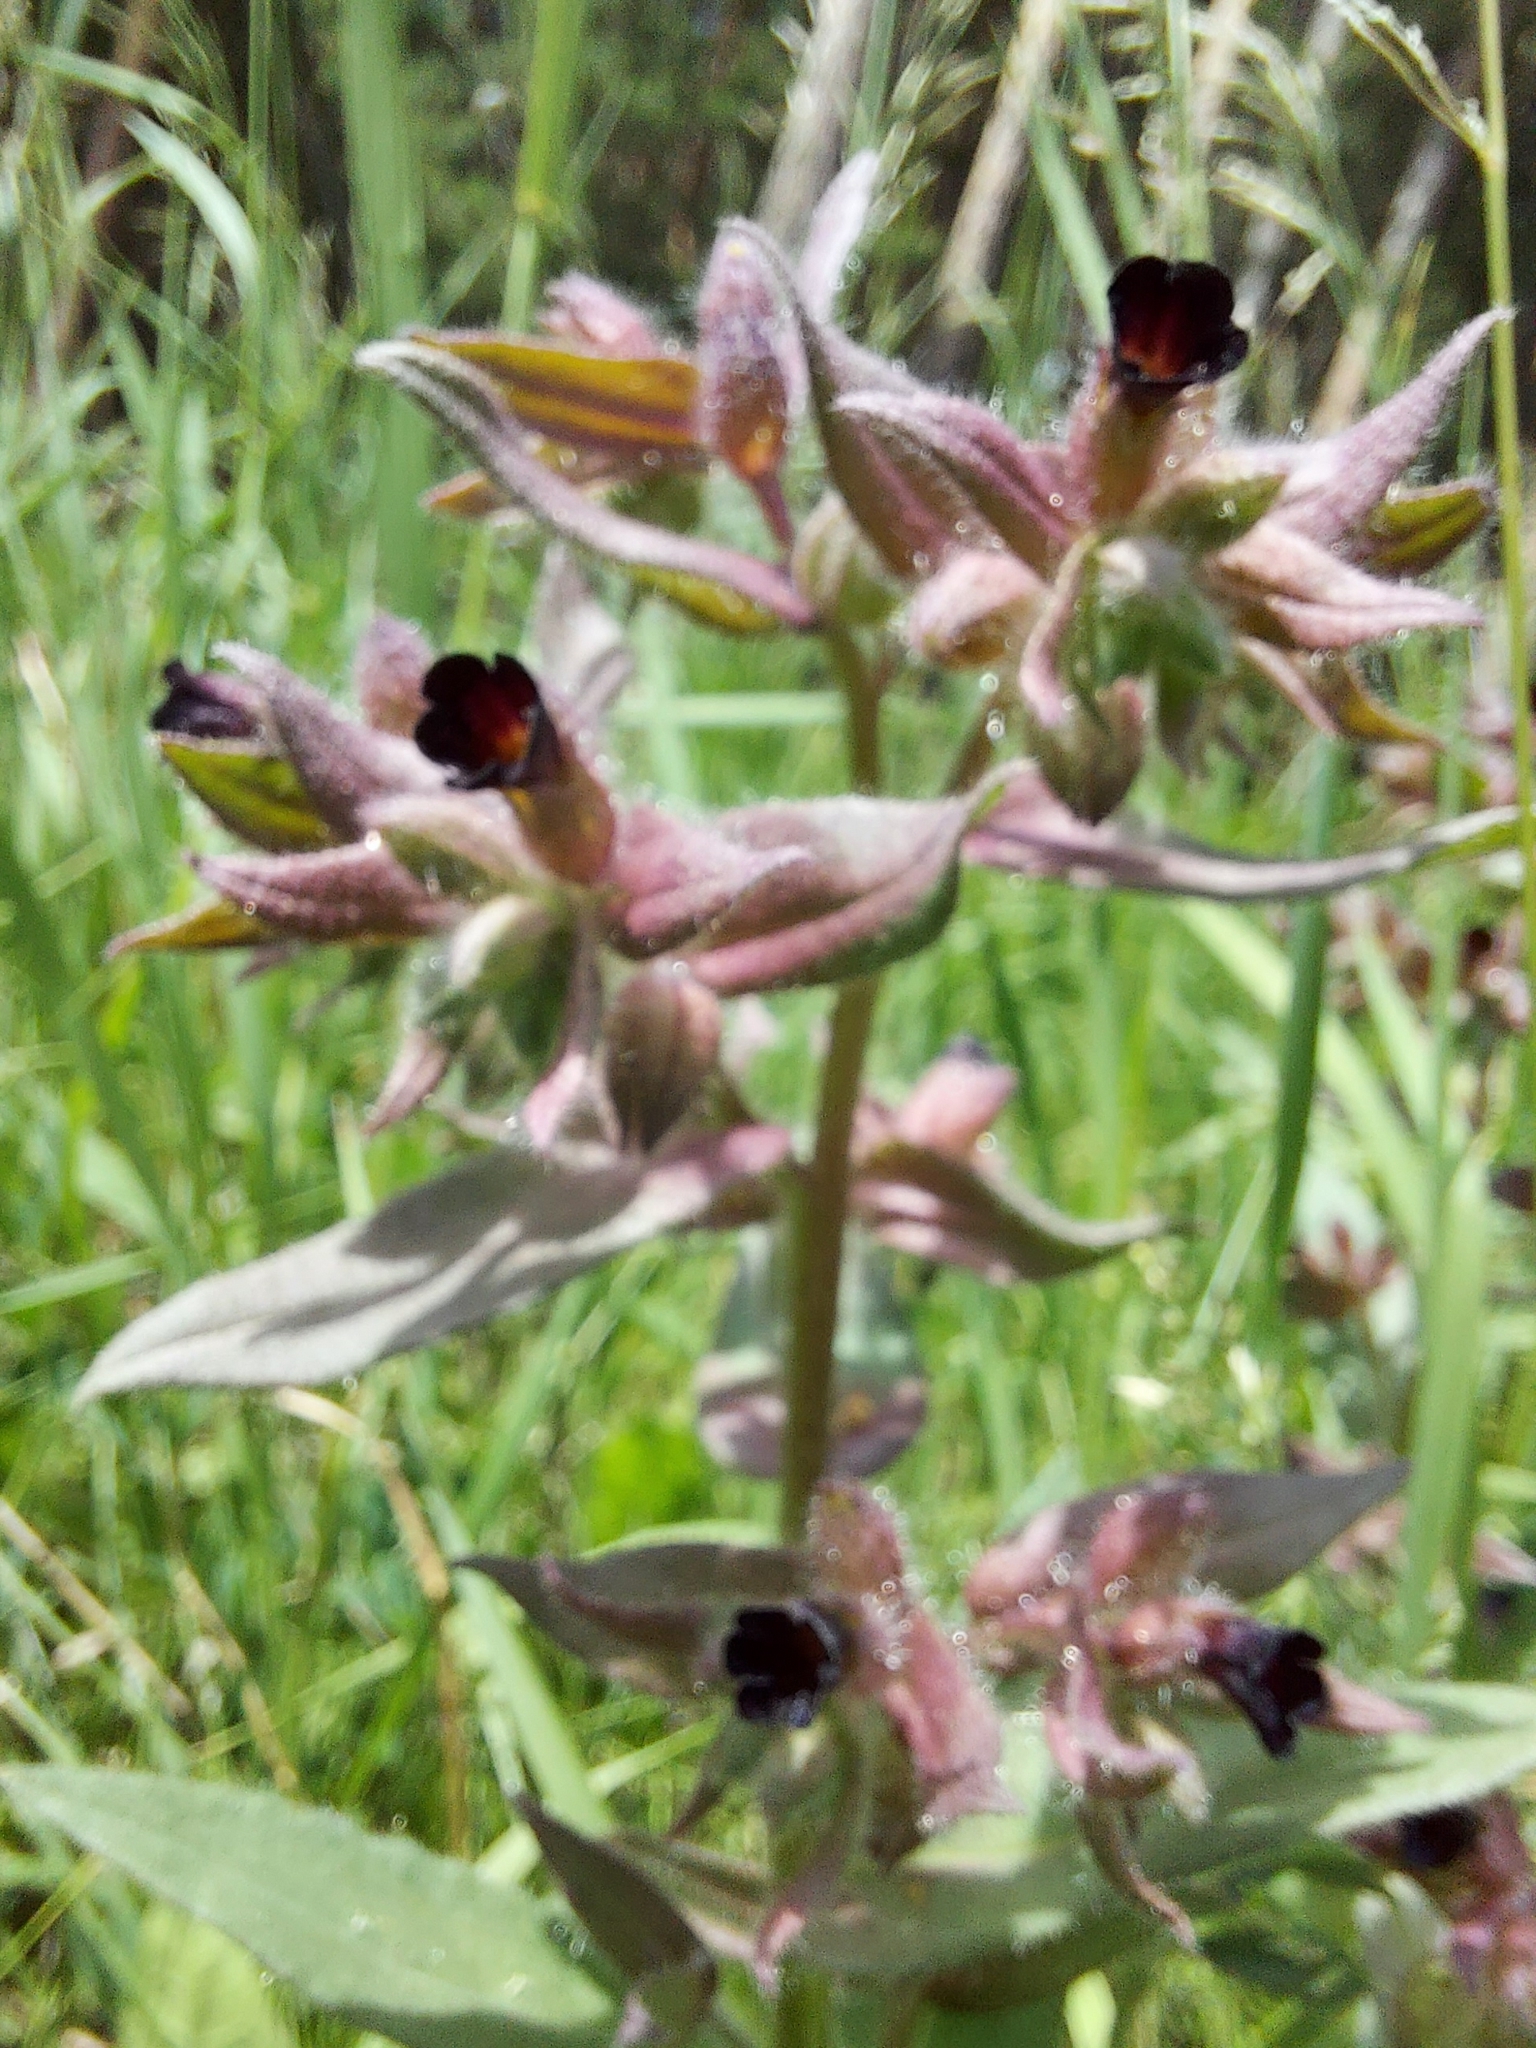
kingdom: Plantae
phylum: Tracheophyta
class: Magnoliopsida
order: Boraginales
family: Boraginaceae
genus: Nonea
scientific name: Nonea pulla
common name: Brown nonea
